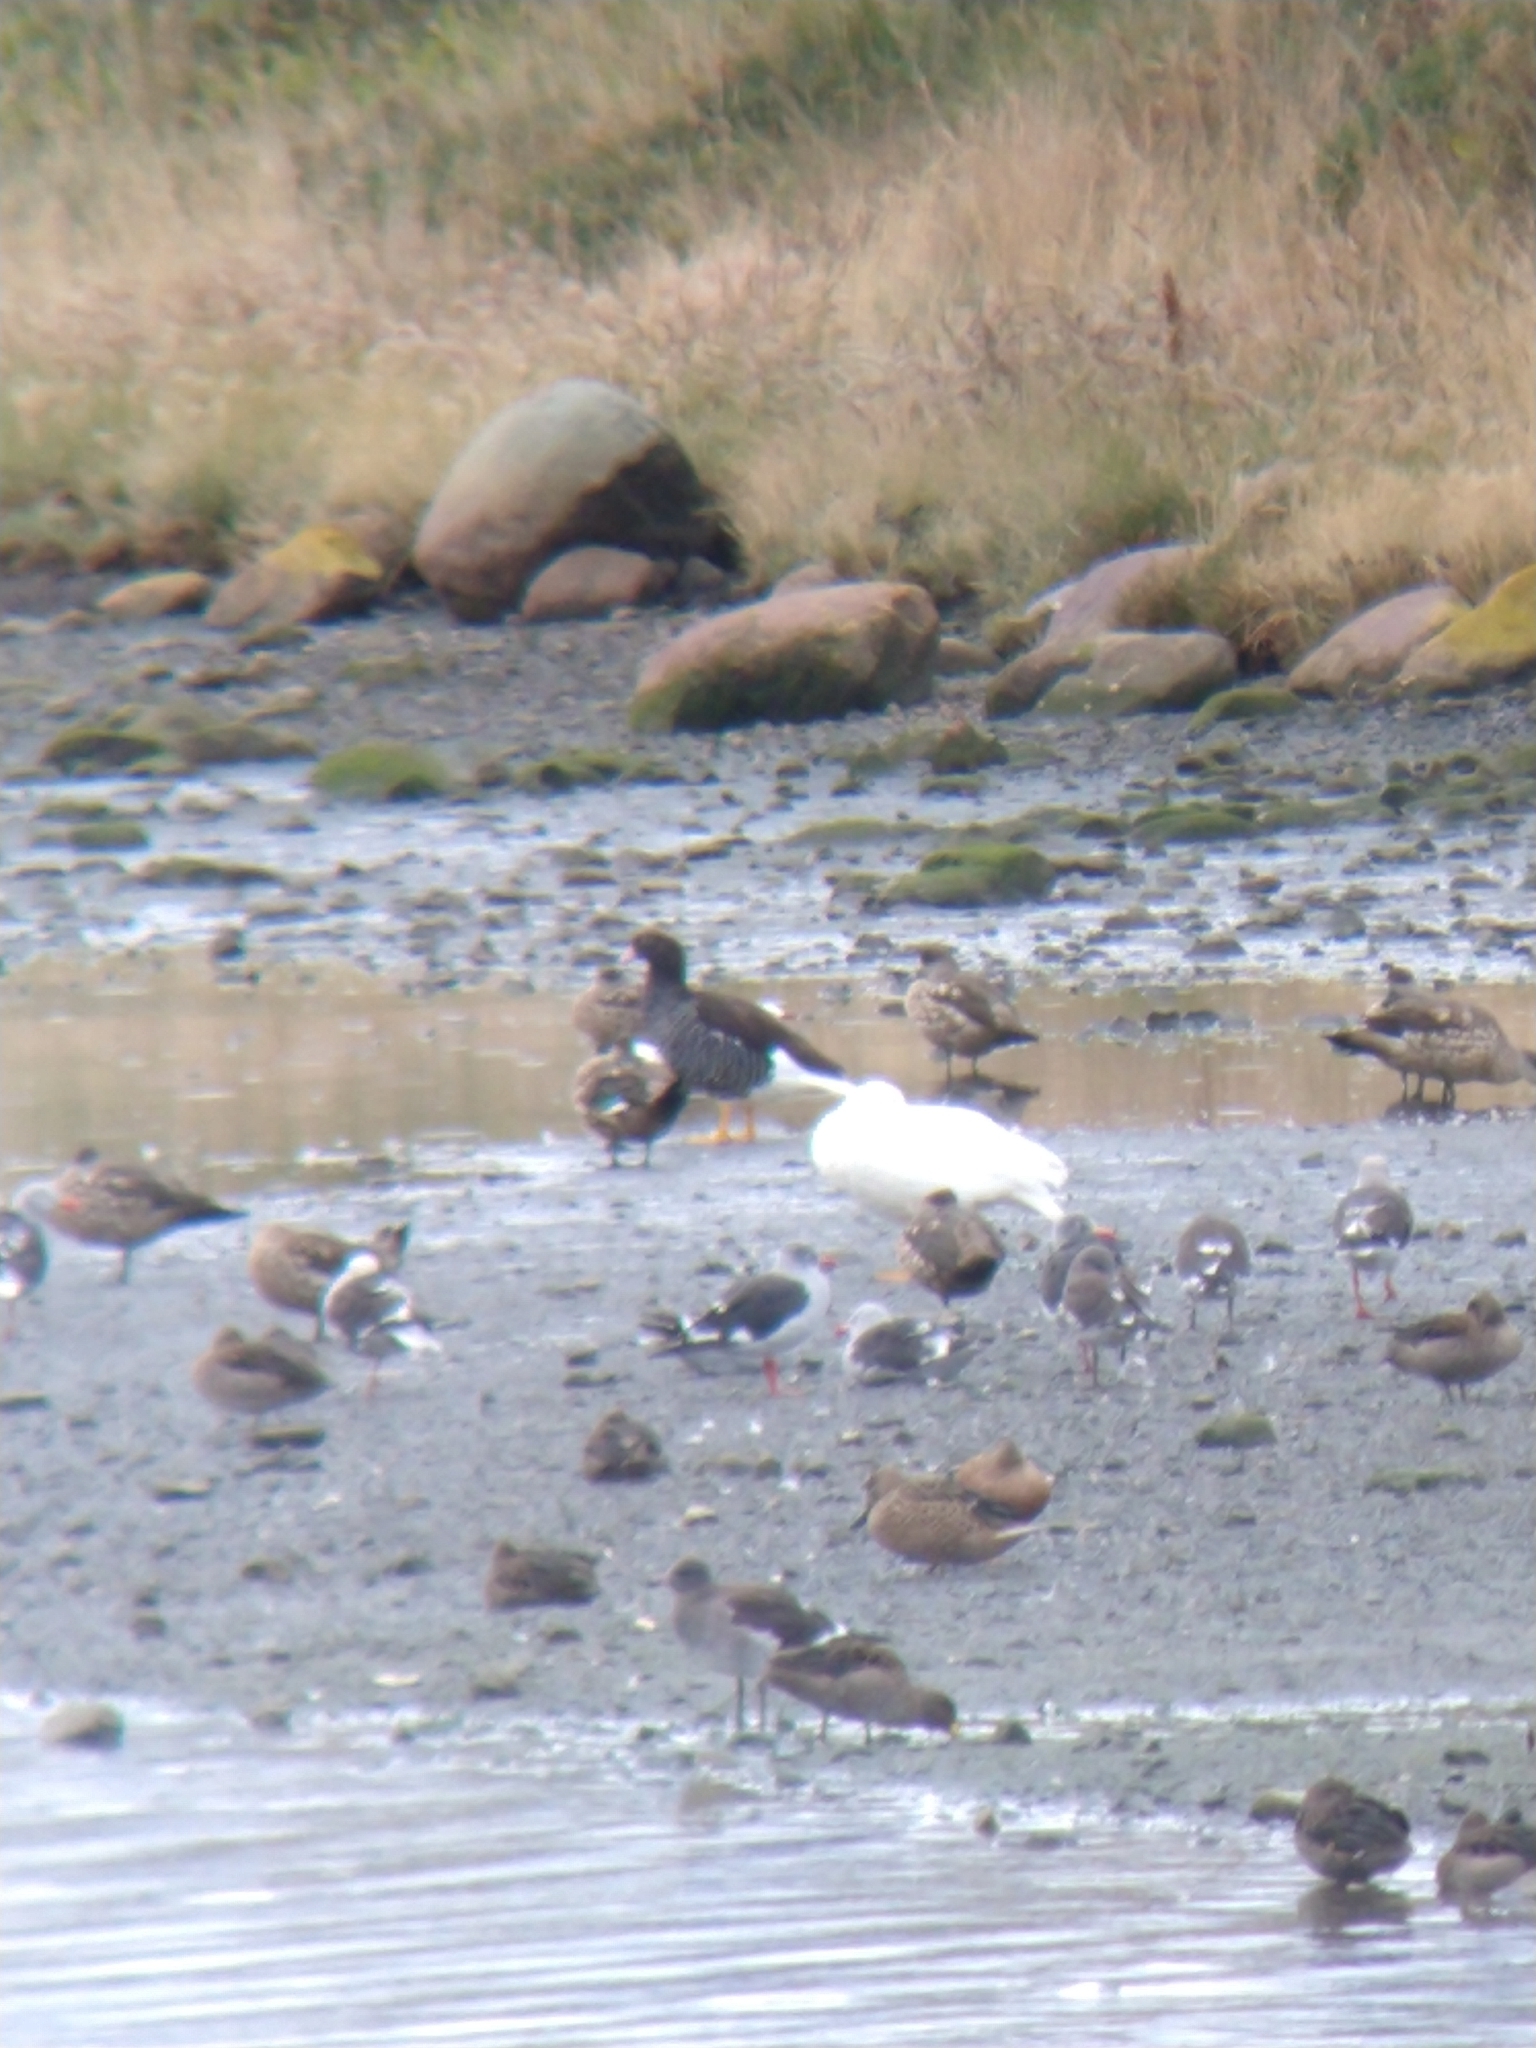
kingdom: Animalia
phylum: Chordata
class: Aves
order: Anseriformes
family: Anatidae
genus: Chloephaga
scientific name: Chloephaga hybrida
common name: Kelp goose
